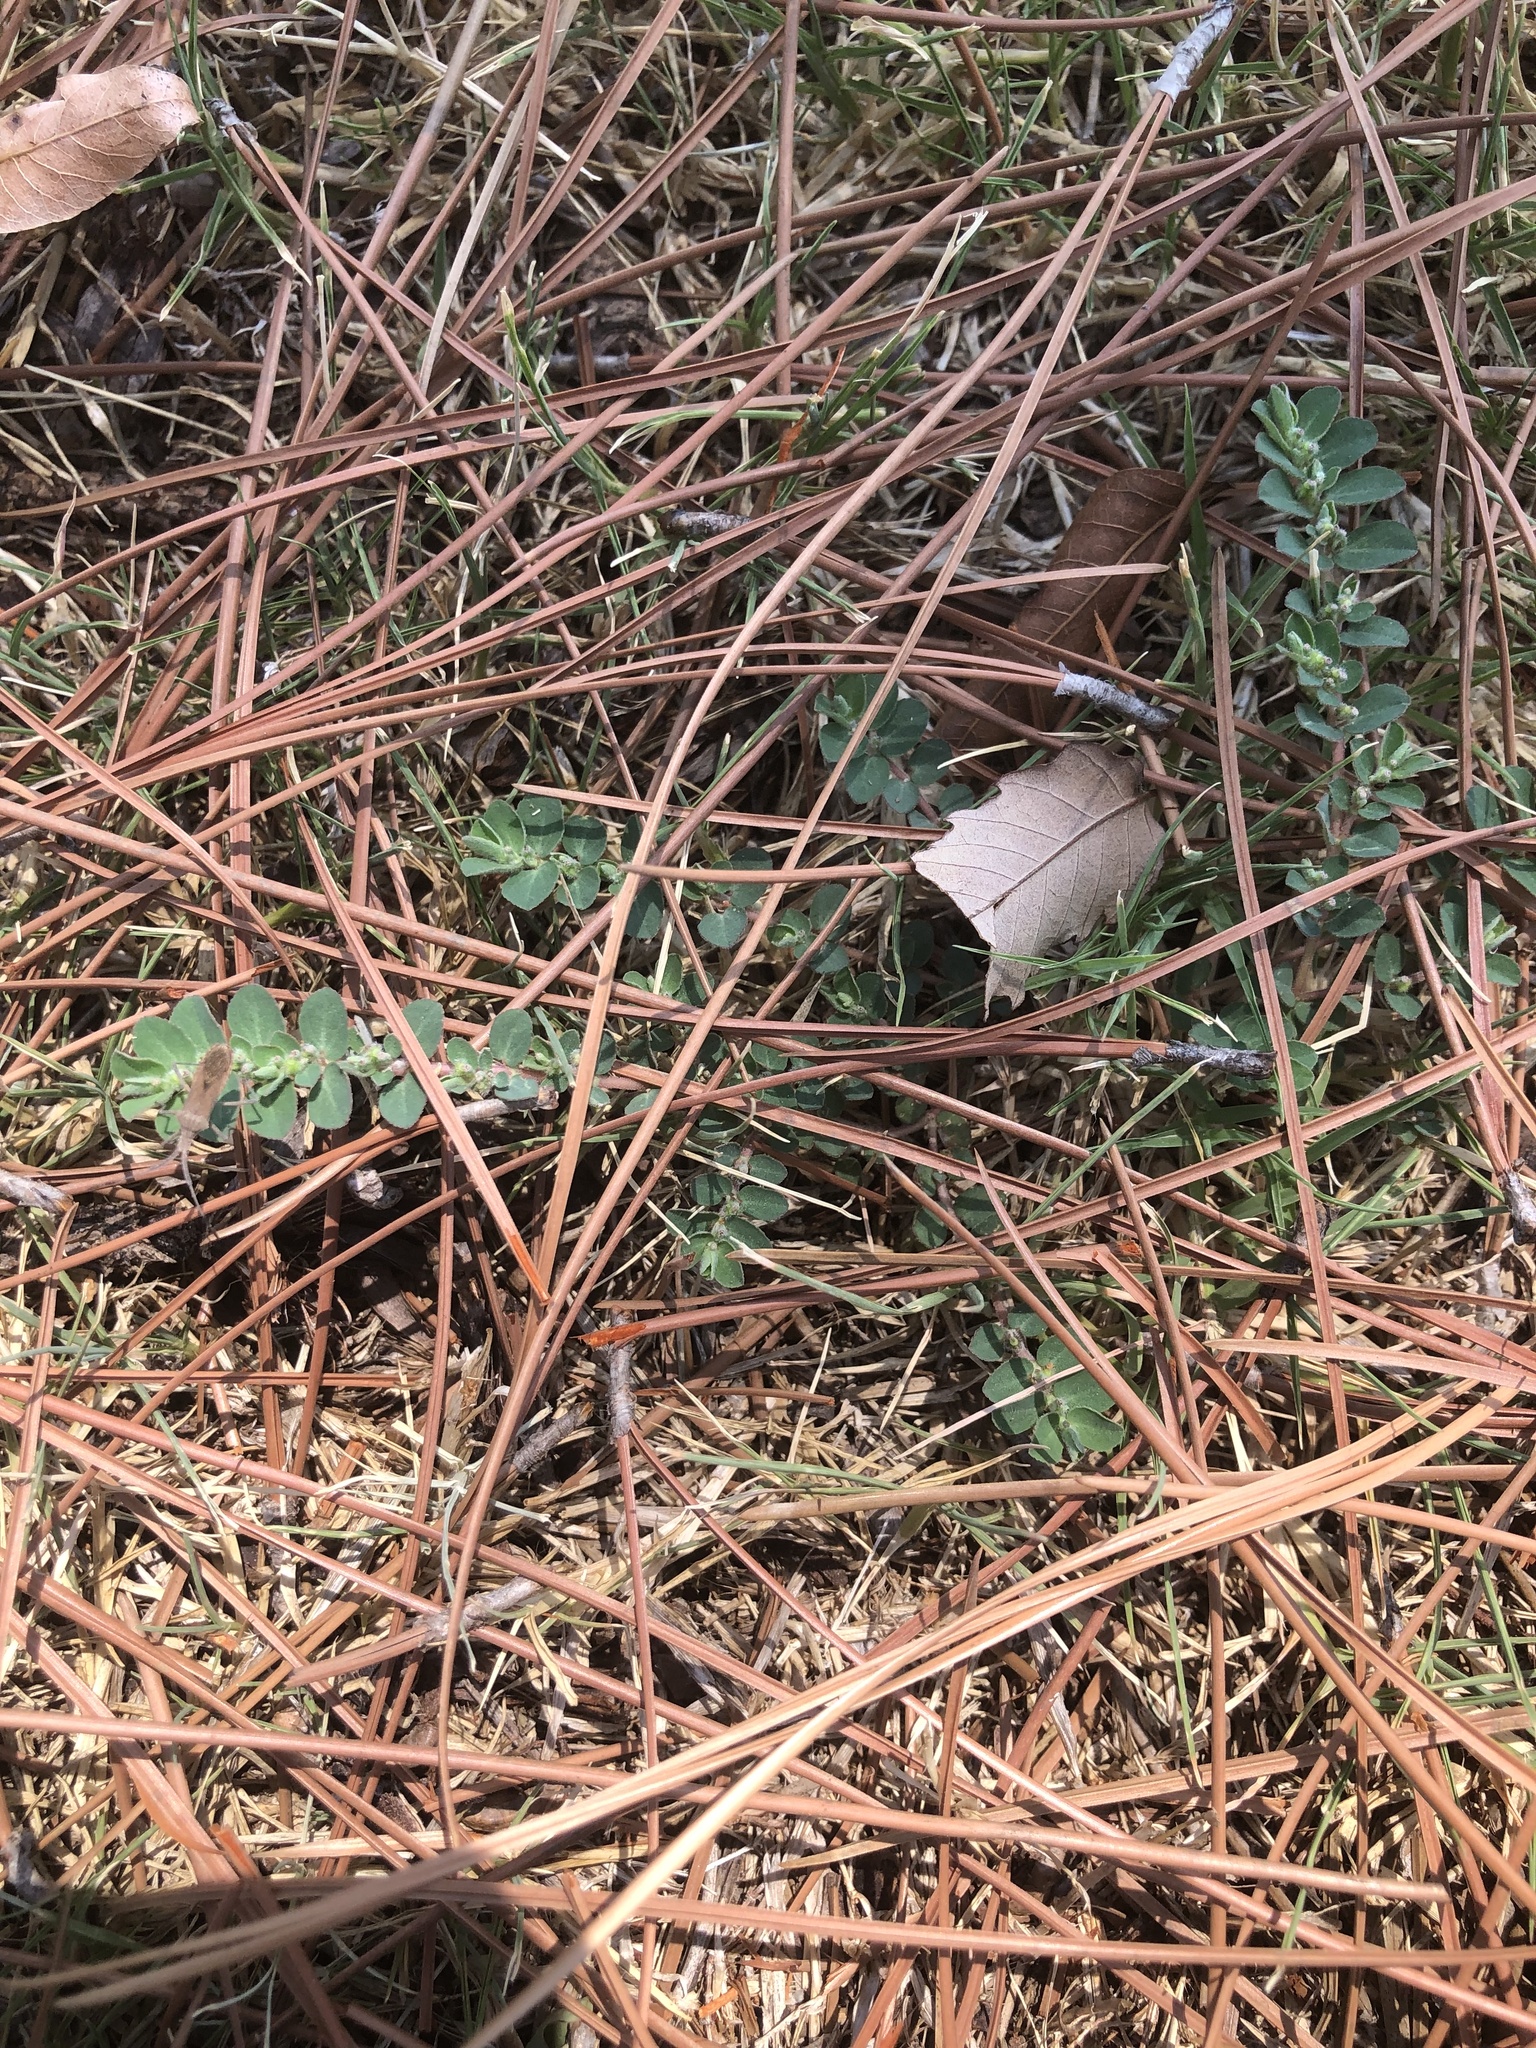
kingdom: Plantae
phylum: Tracheophyta
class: Magnoliopsida
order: Malpighiales
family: Euphorbiaceae
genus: Euphorbia
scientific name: Euphorbia prostrata
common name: Prostrate sandmat
